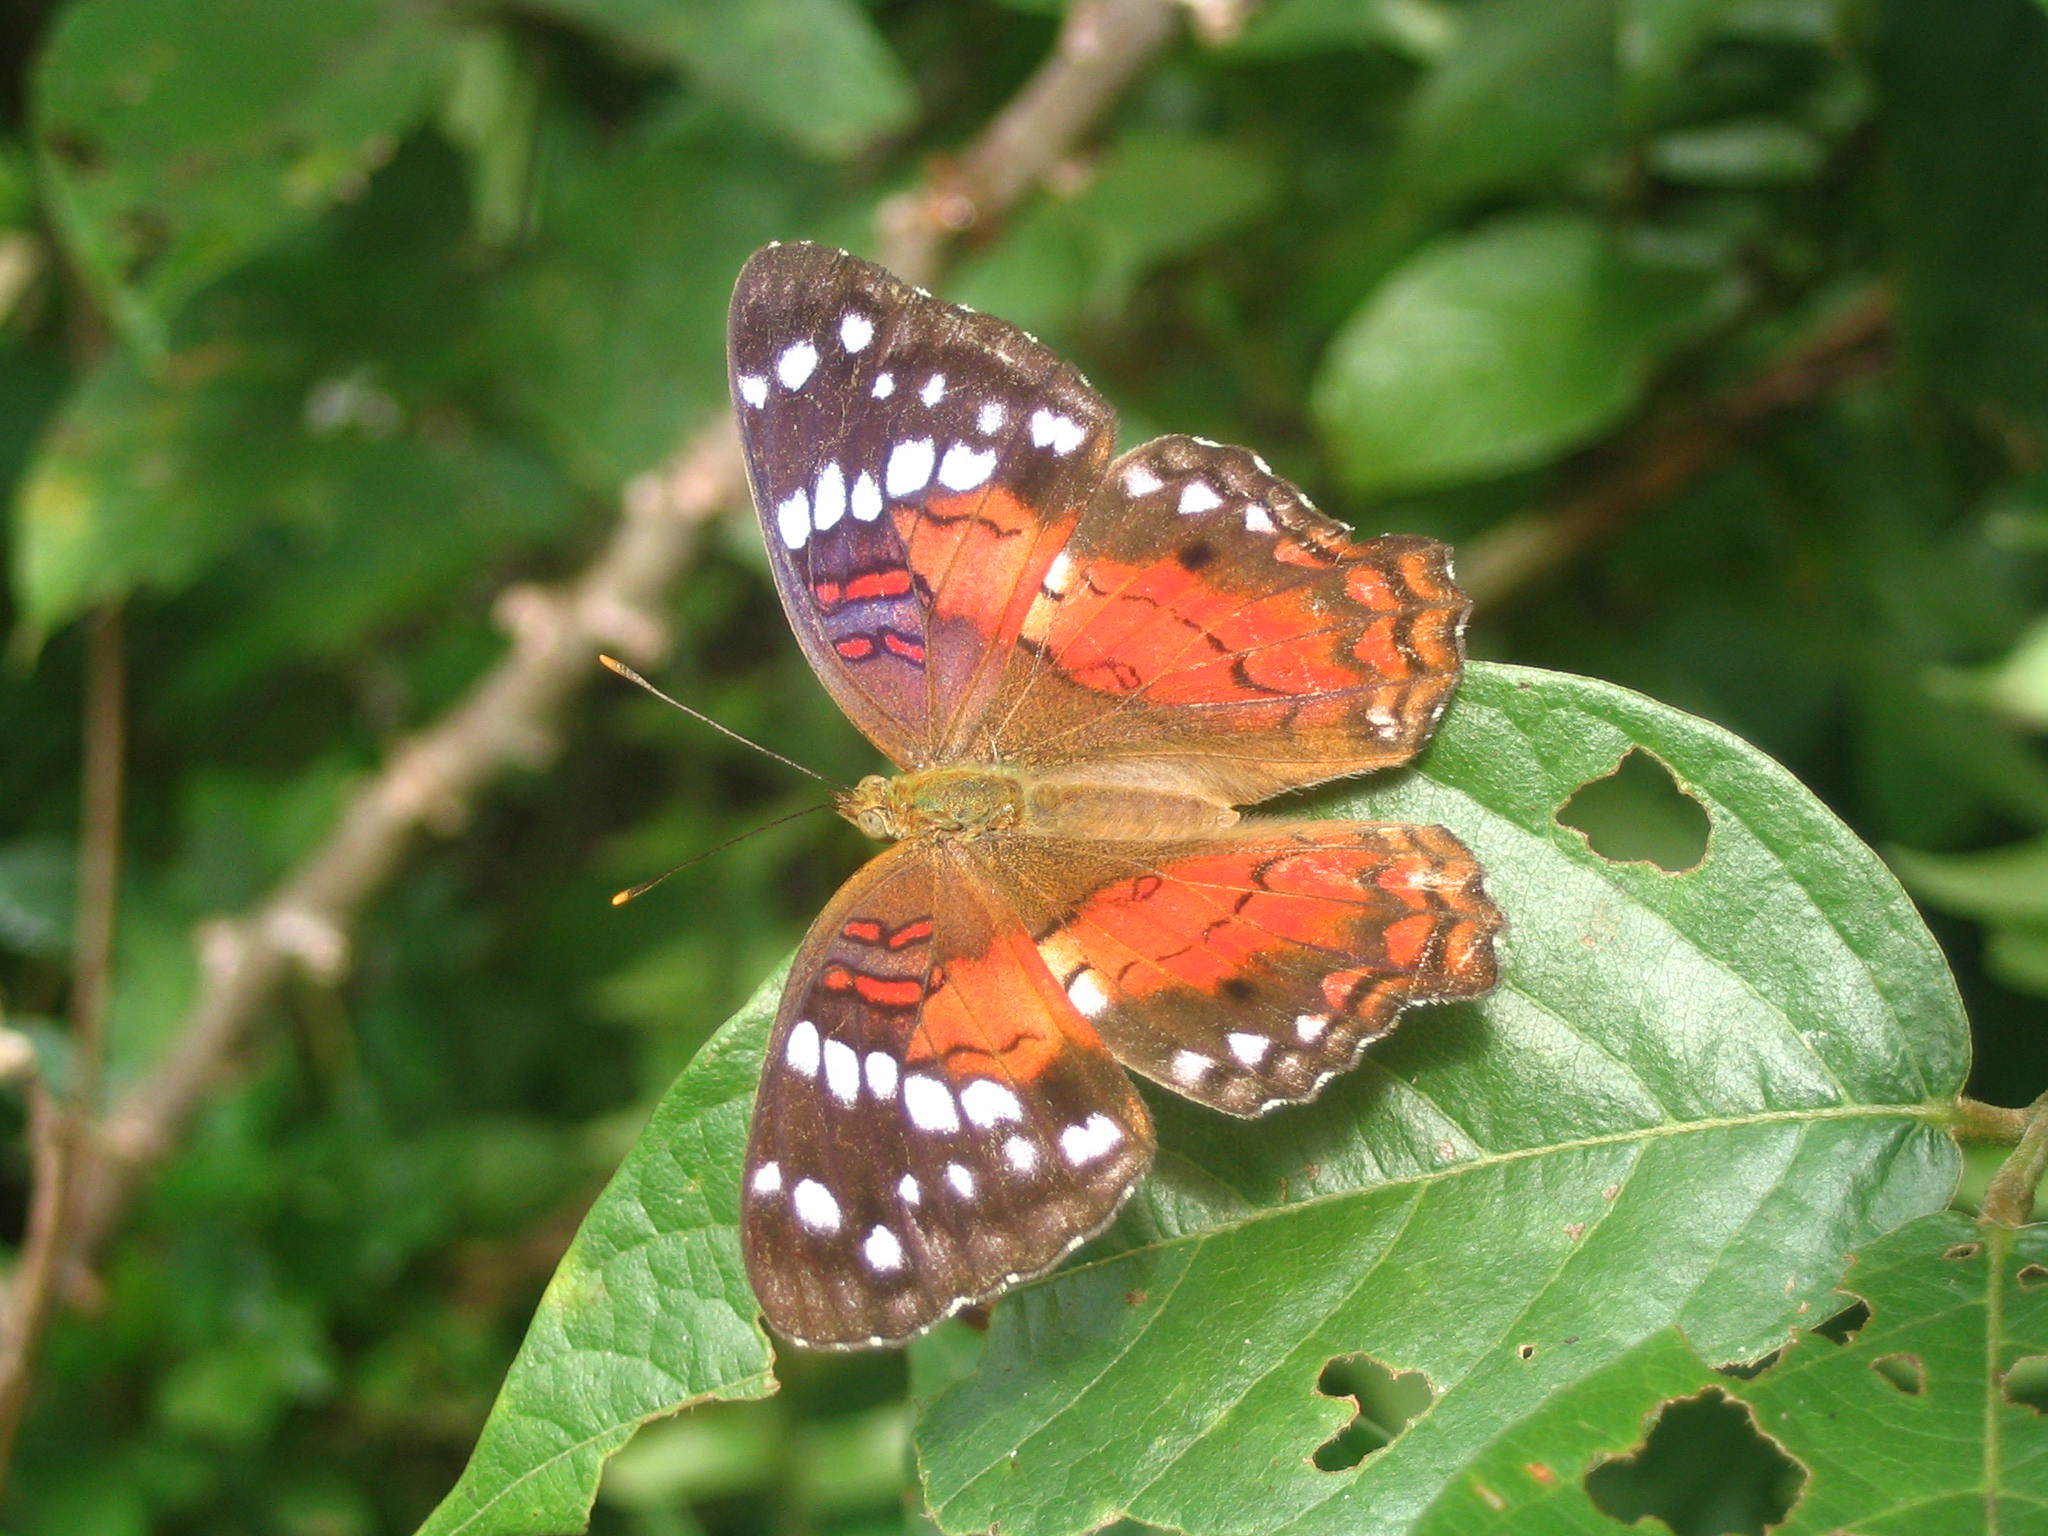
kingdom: Animalia
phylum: Arthropoda
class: Insecta
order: Lepidoptera
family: Nymphalidae
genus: Anartia
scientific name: Anartia amathea
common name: Red peacock
